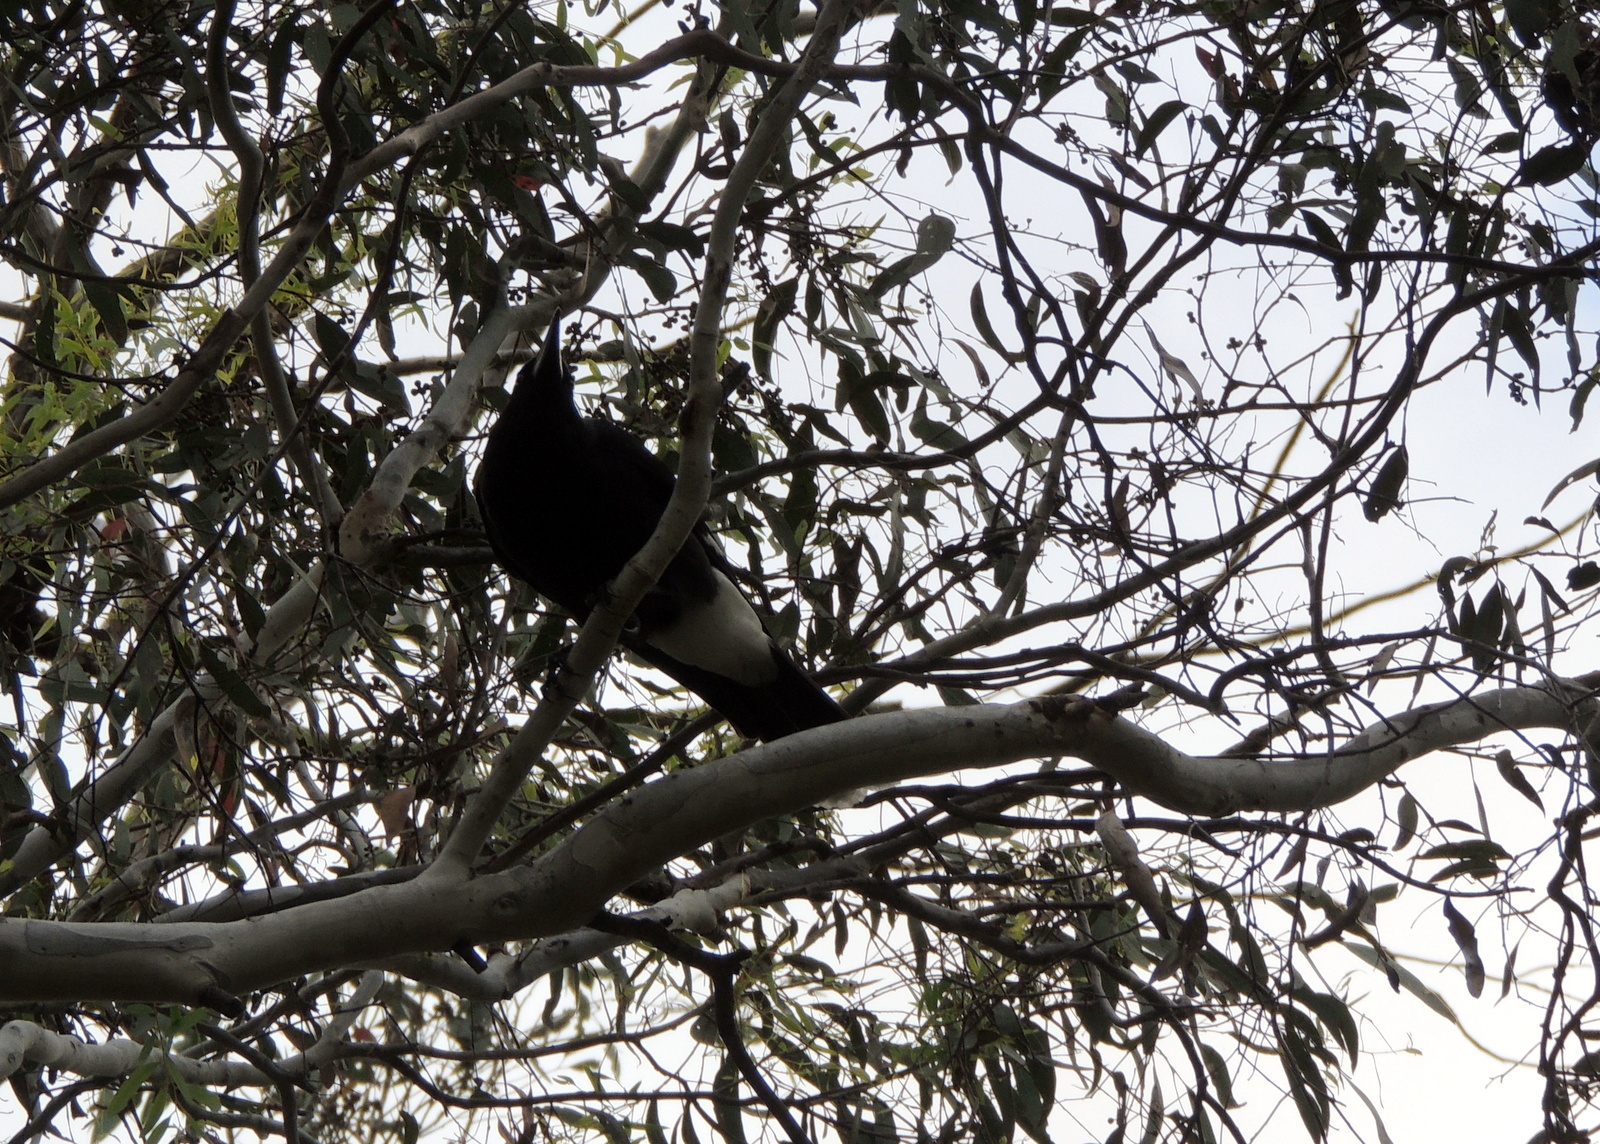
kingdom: Animalia
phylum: Chordata
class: Aves
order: Passeriformes
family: Cracticidae
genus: Strepera
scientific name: Strepera graculina
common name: Pied currawong
